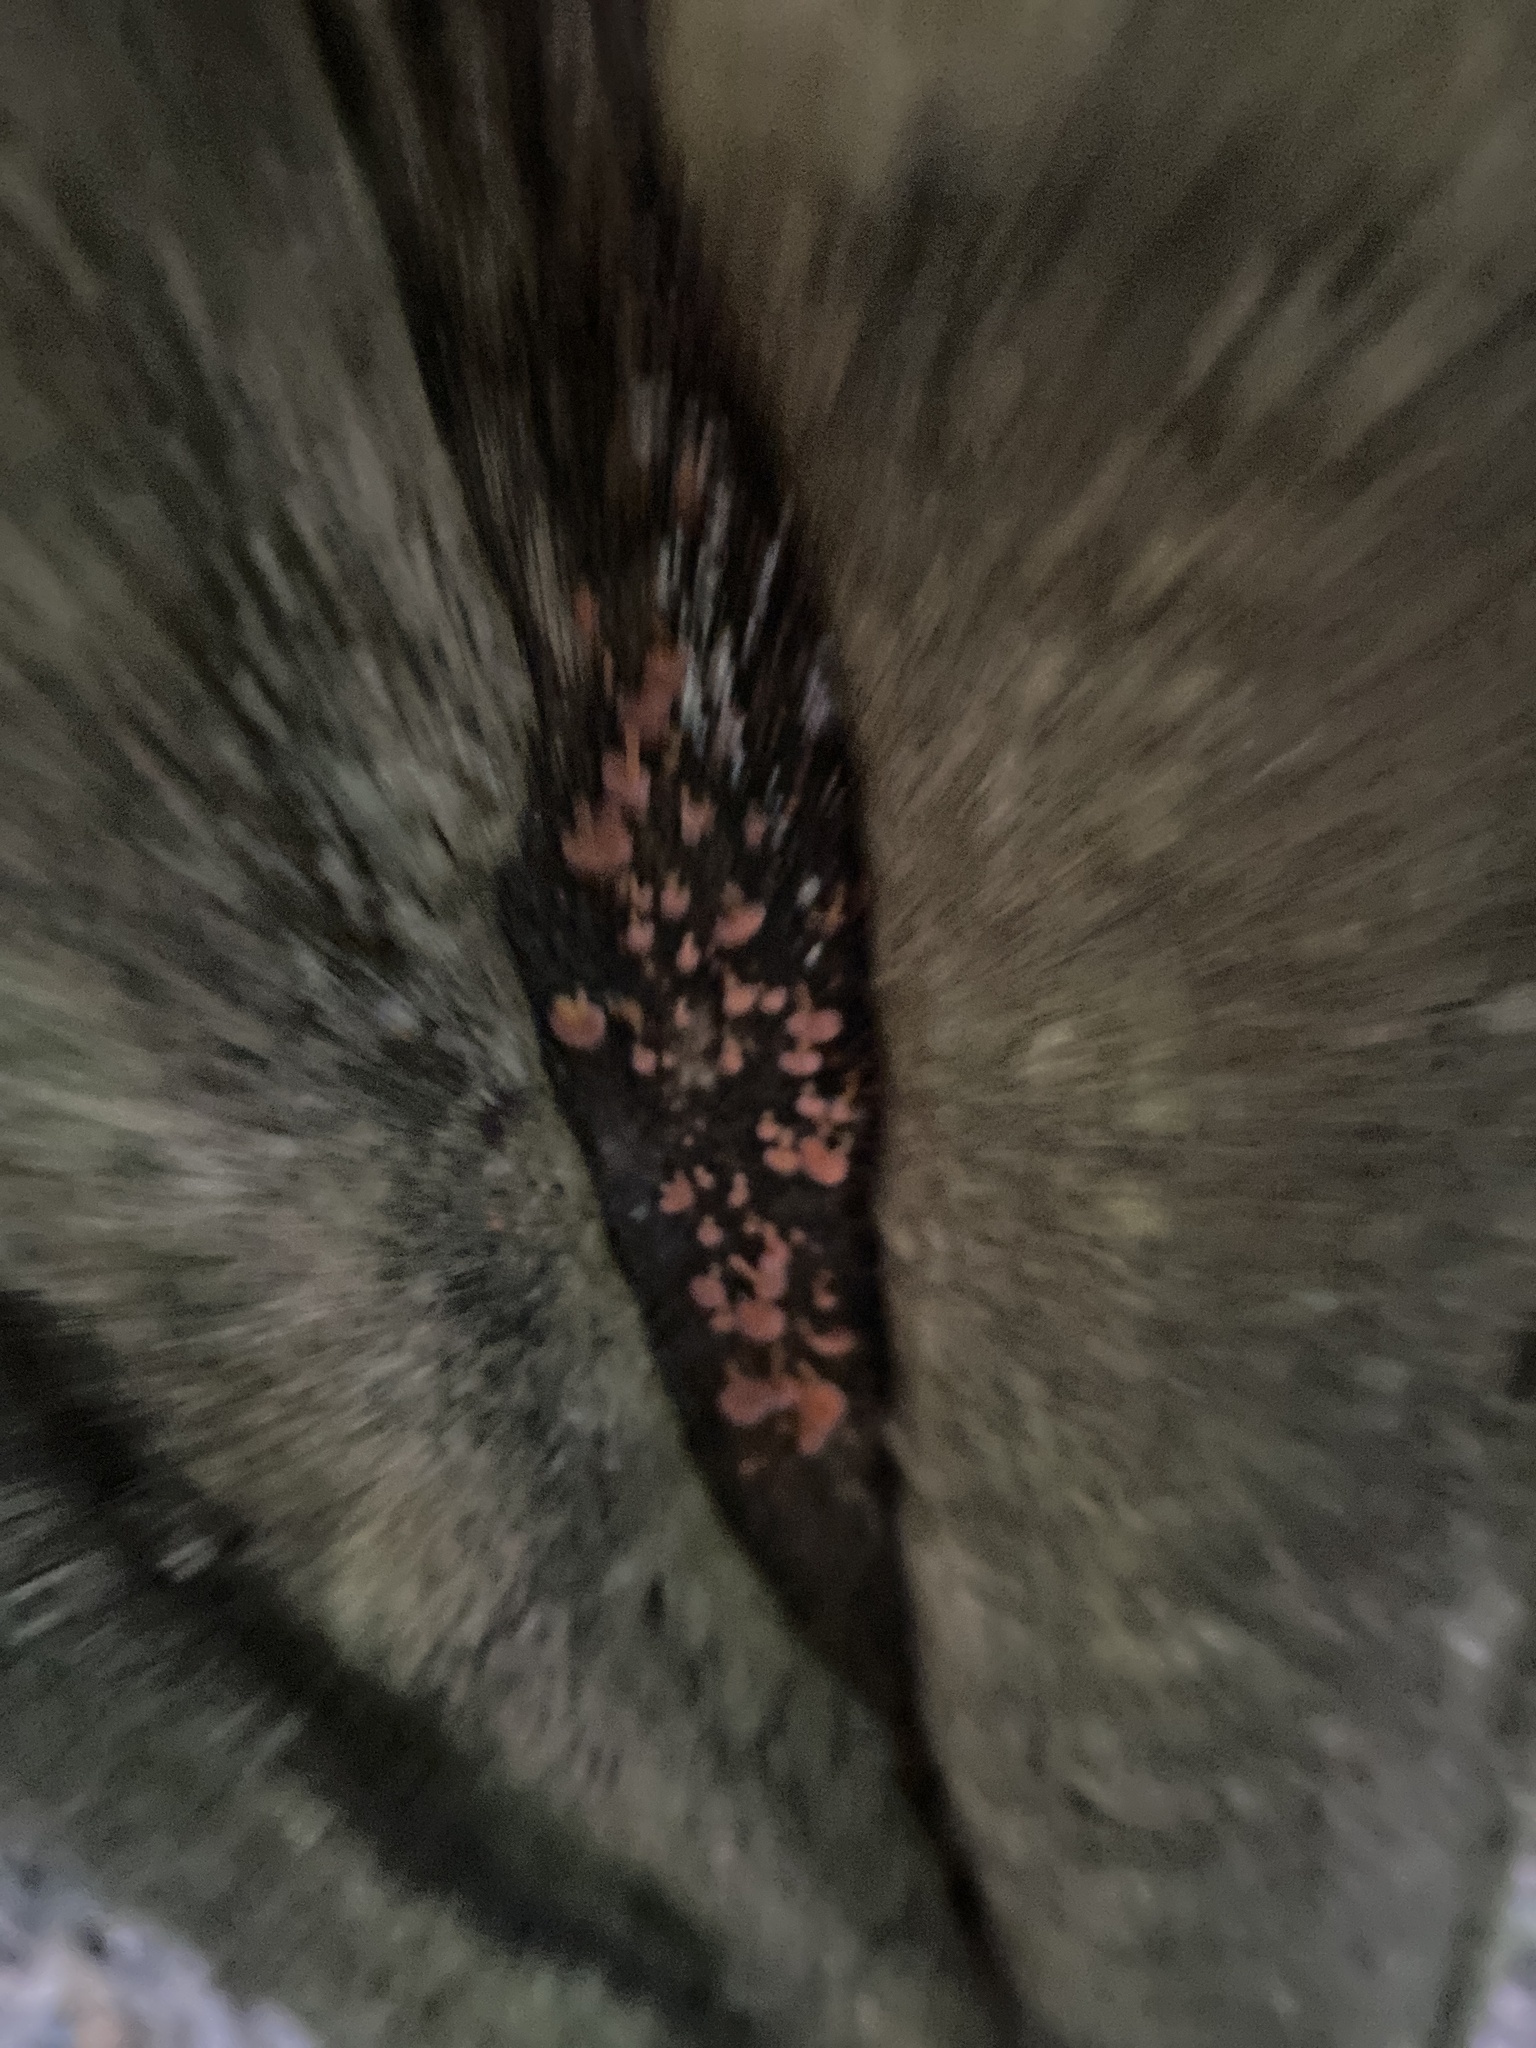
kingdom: Fungi
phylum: Basidiomycota
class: Agaricomycetes
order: Agaricales
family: Mycenaceae
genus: Favolaschia
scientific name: Favolaschia claudopus
